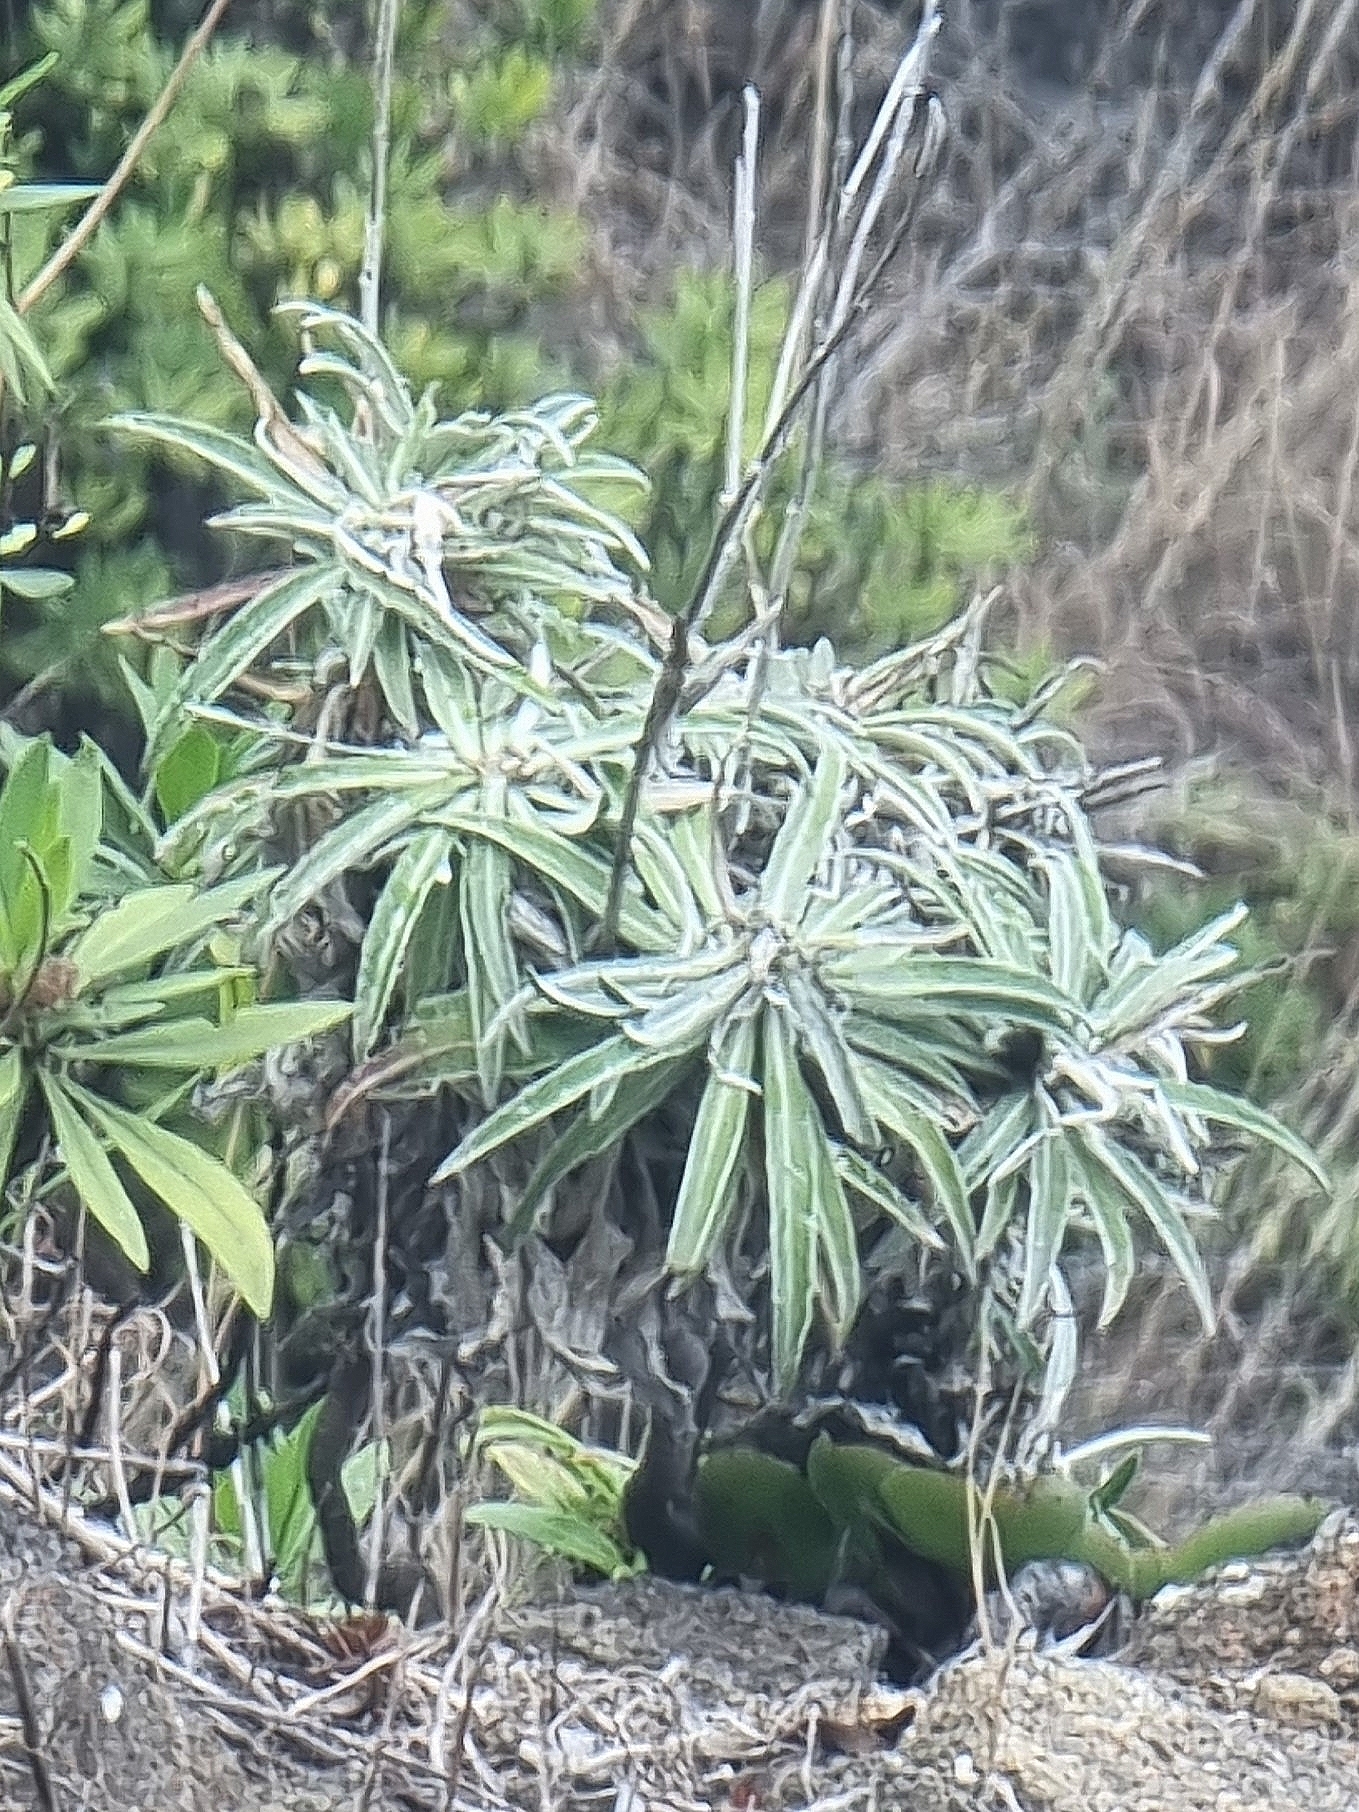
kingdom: Plantae
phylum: Tracheophyta
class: Magnoliopsida
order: Asterales
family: Asteraceae
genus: Carlina
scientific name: Carlina salicifolia
